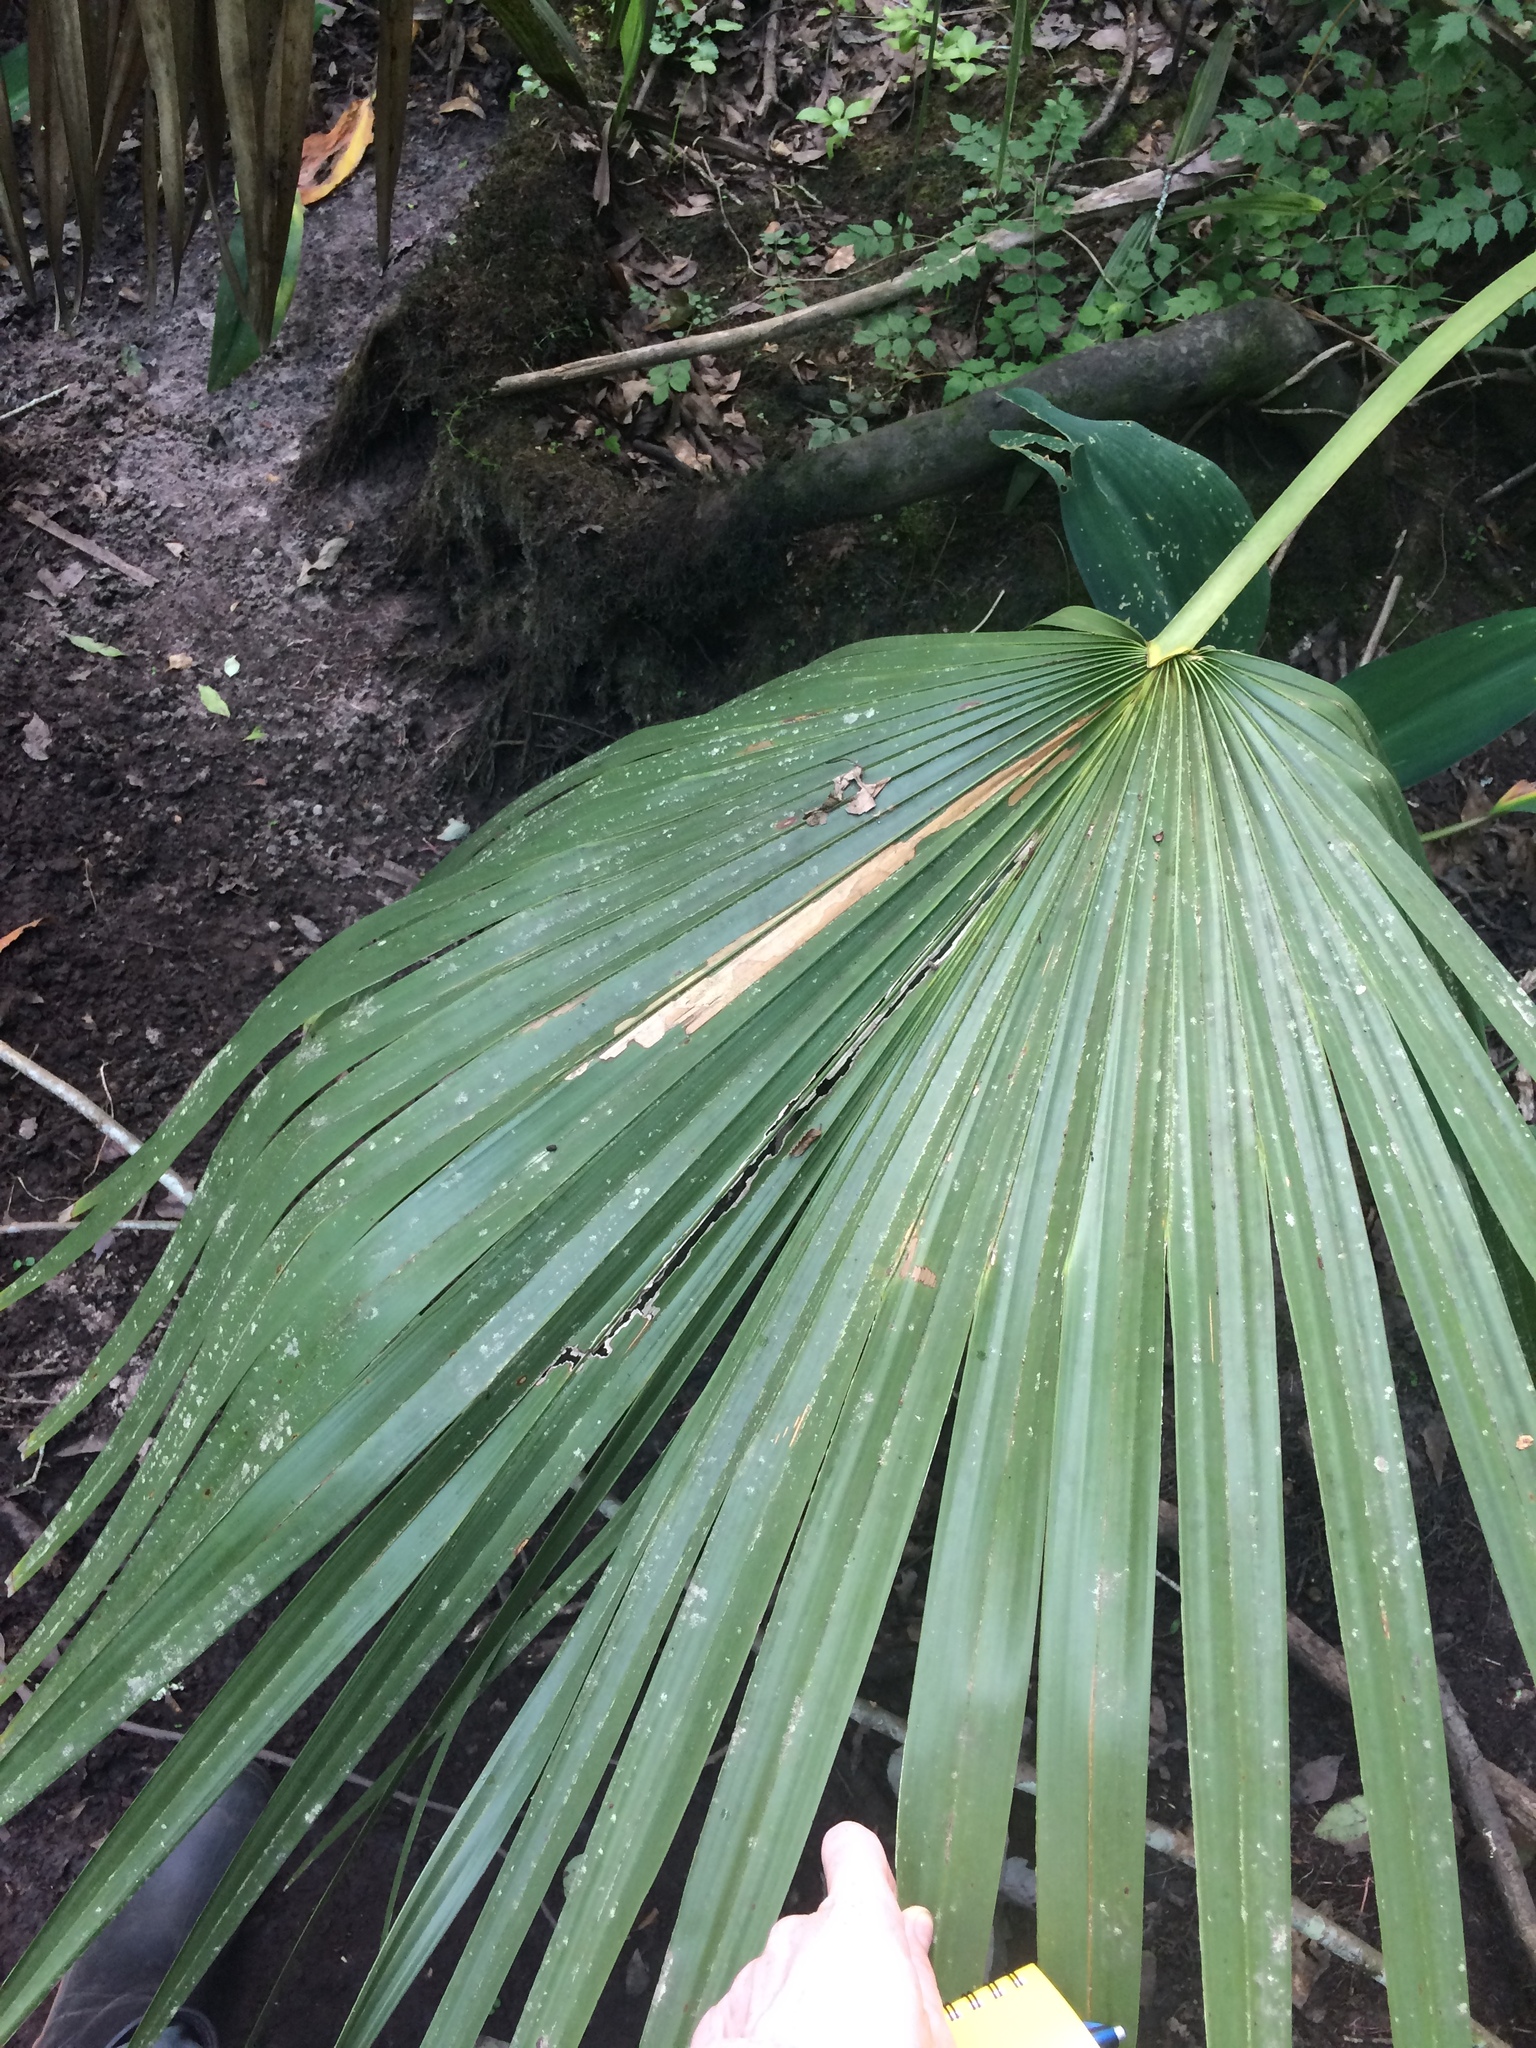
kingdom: Plantae
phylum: Tracheophyta
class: Liliopsida
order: Arecales
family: Arecaceae
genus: Sabal
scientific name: Sabal minor
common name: Dwarf palmetto
